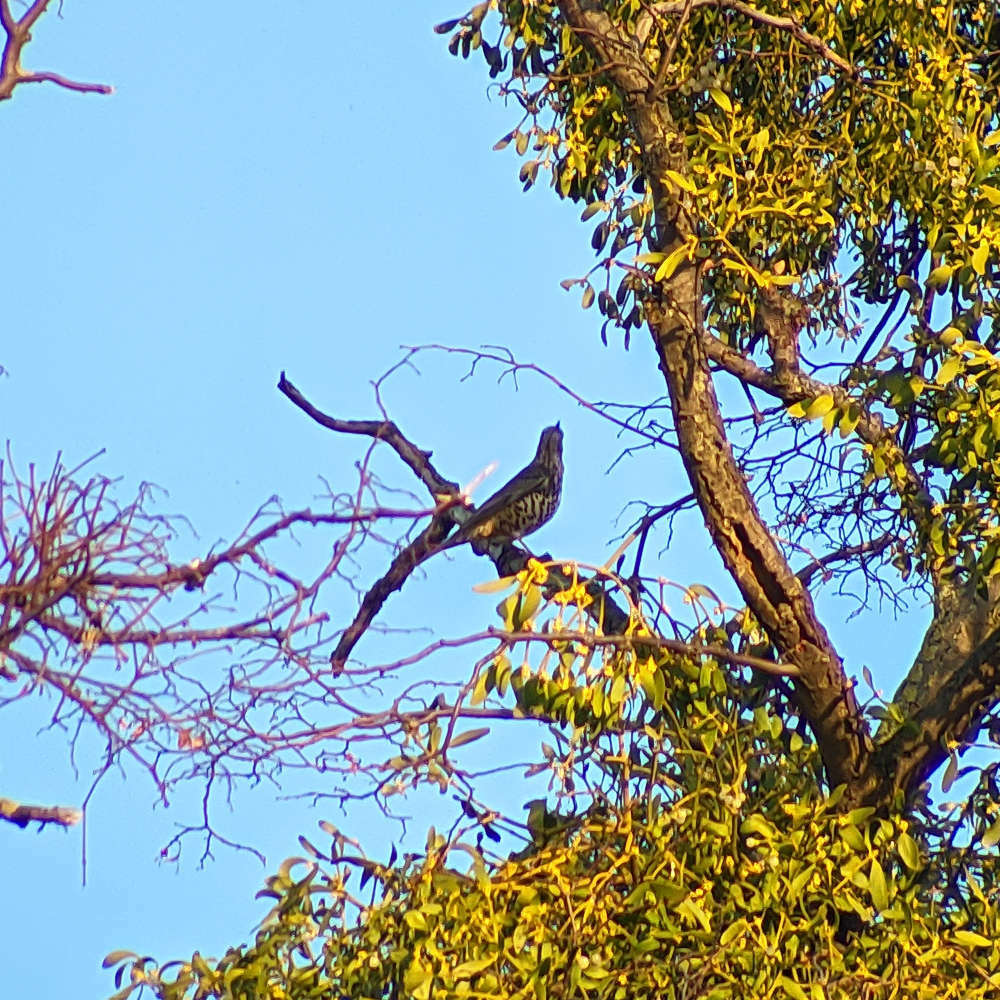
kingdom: Animalia
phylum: Chordata
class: Aves
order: Passeriformes
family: Turdidae
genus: Turdus
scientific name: Turdus viscivorus
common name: Mistle thrush
